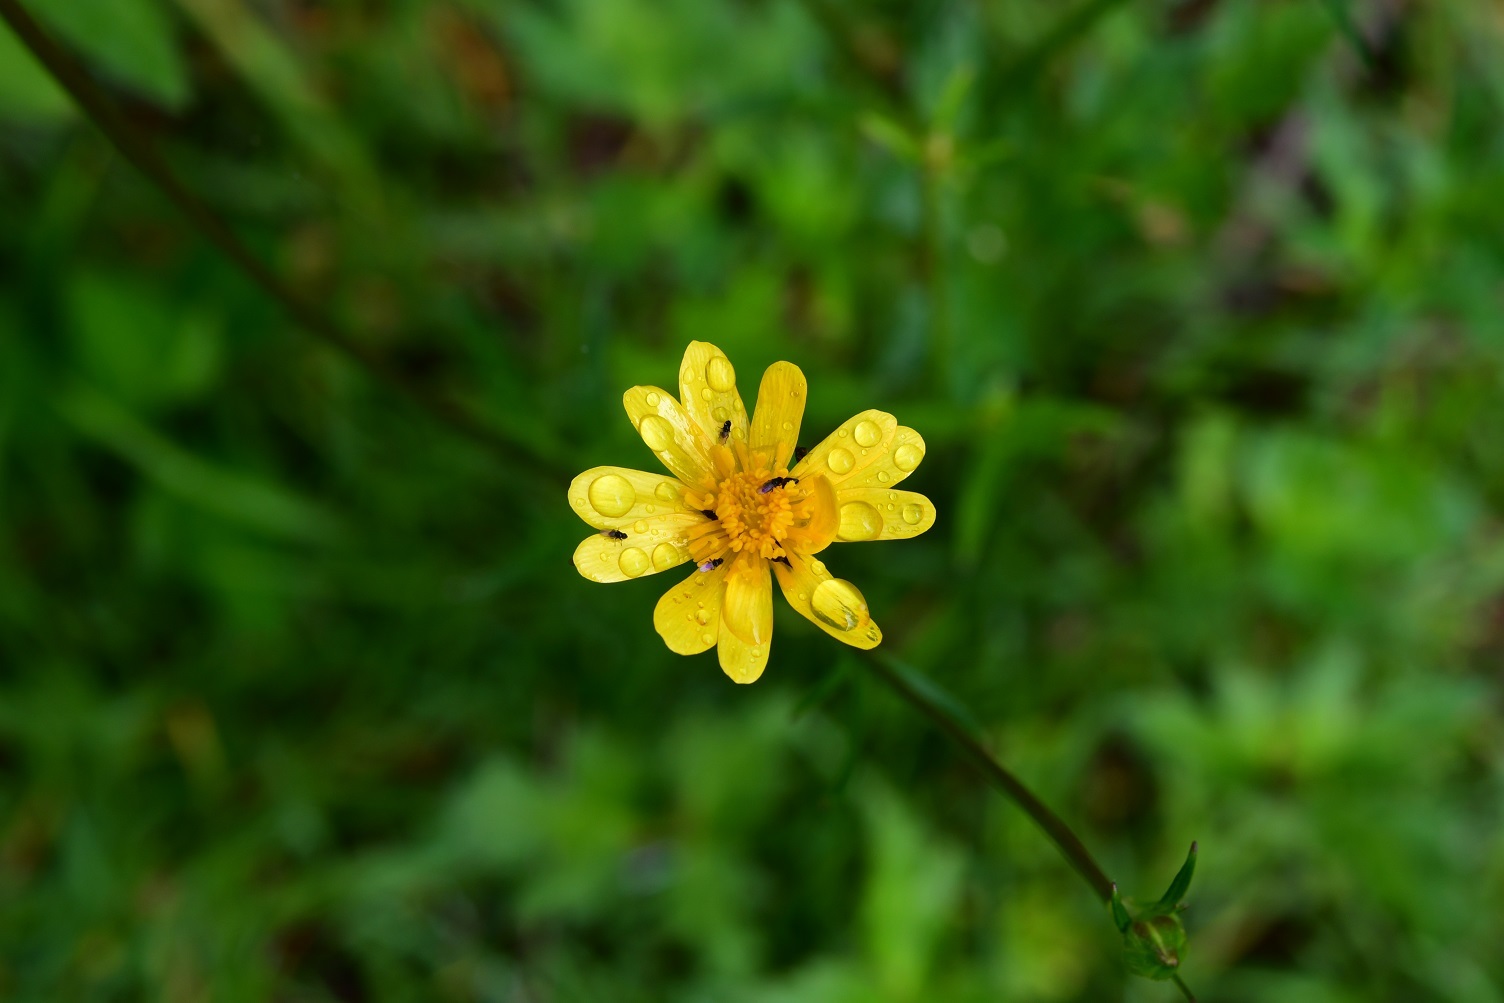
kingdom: Plantae
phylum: Tracheophyta
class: Magnoliopsida
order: Ranunculales
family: Ranunculaceae
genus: Ranunculus
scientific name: Ranunculus petiolaris
